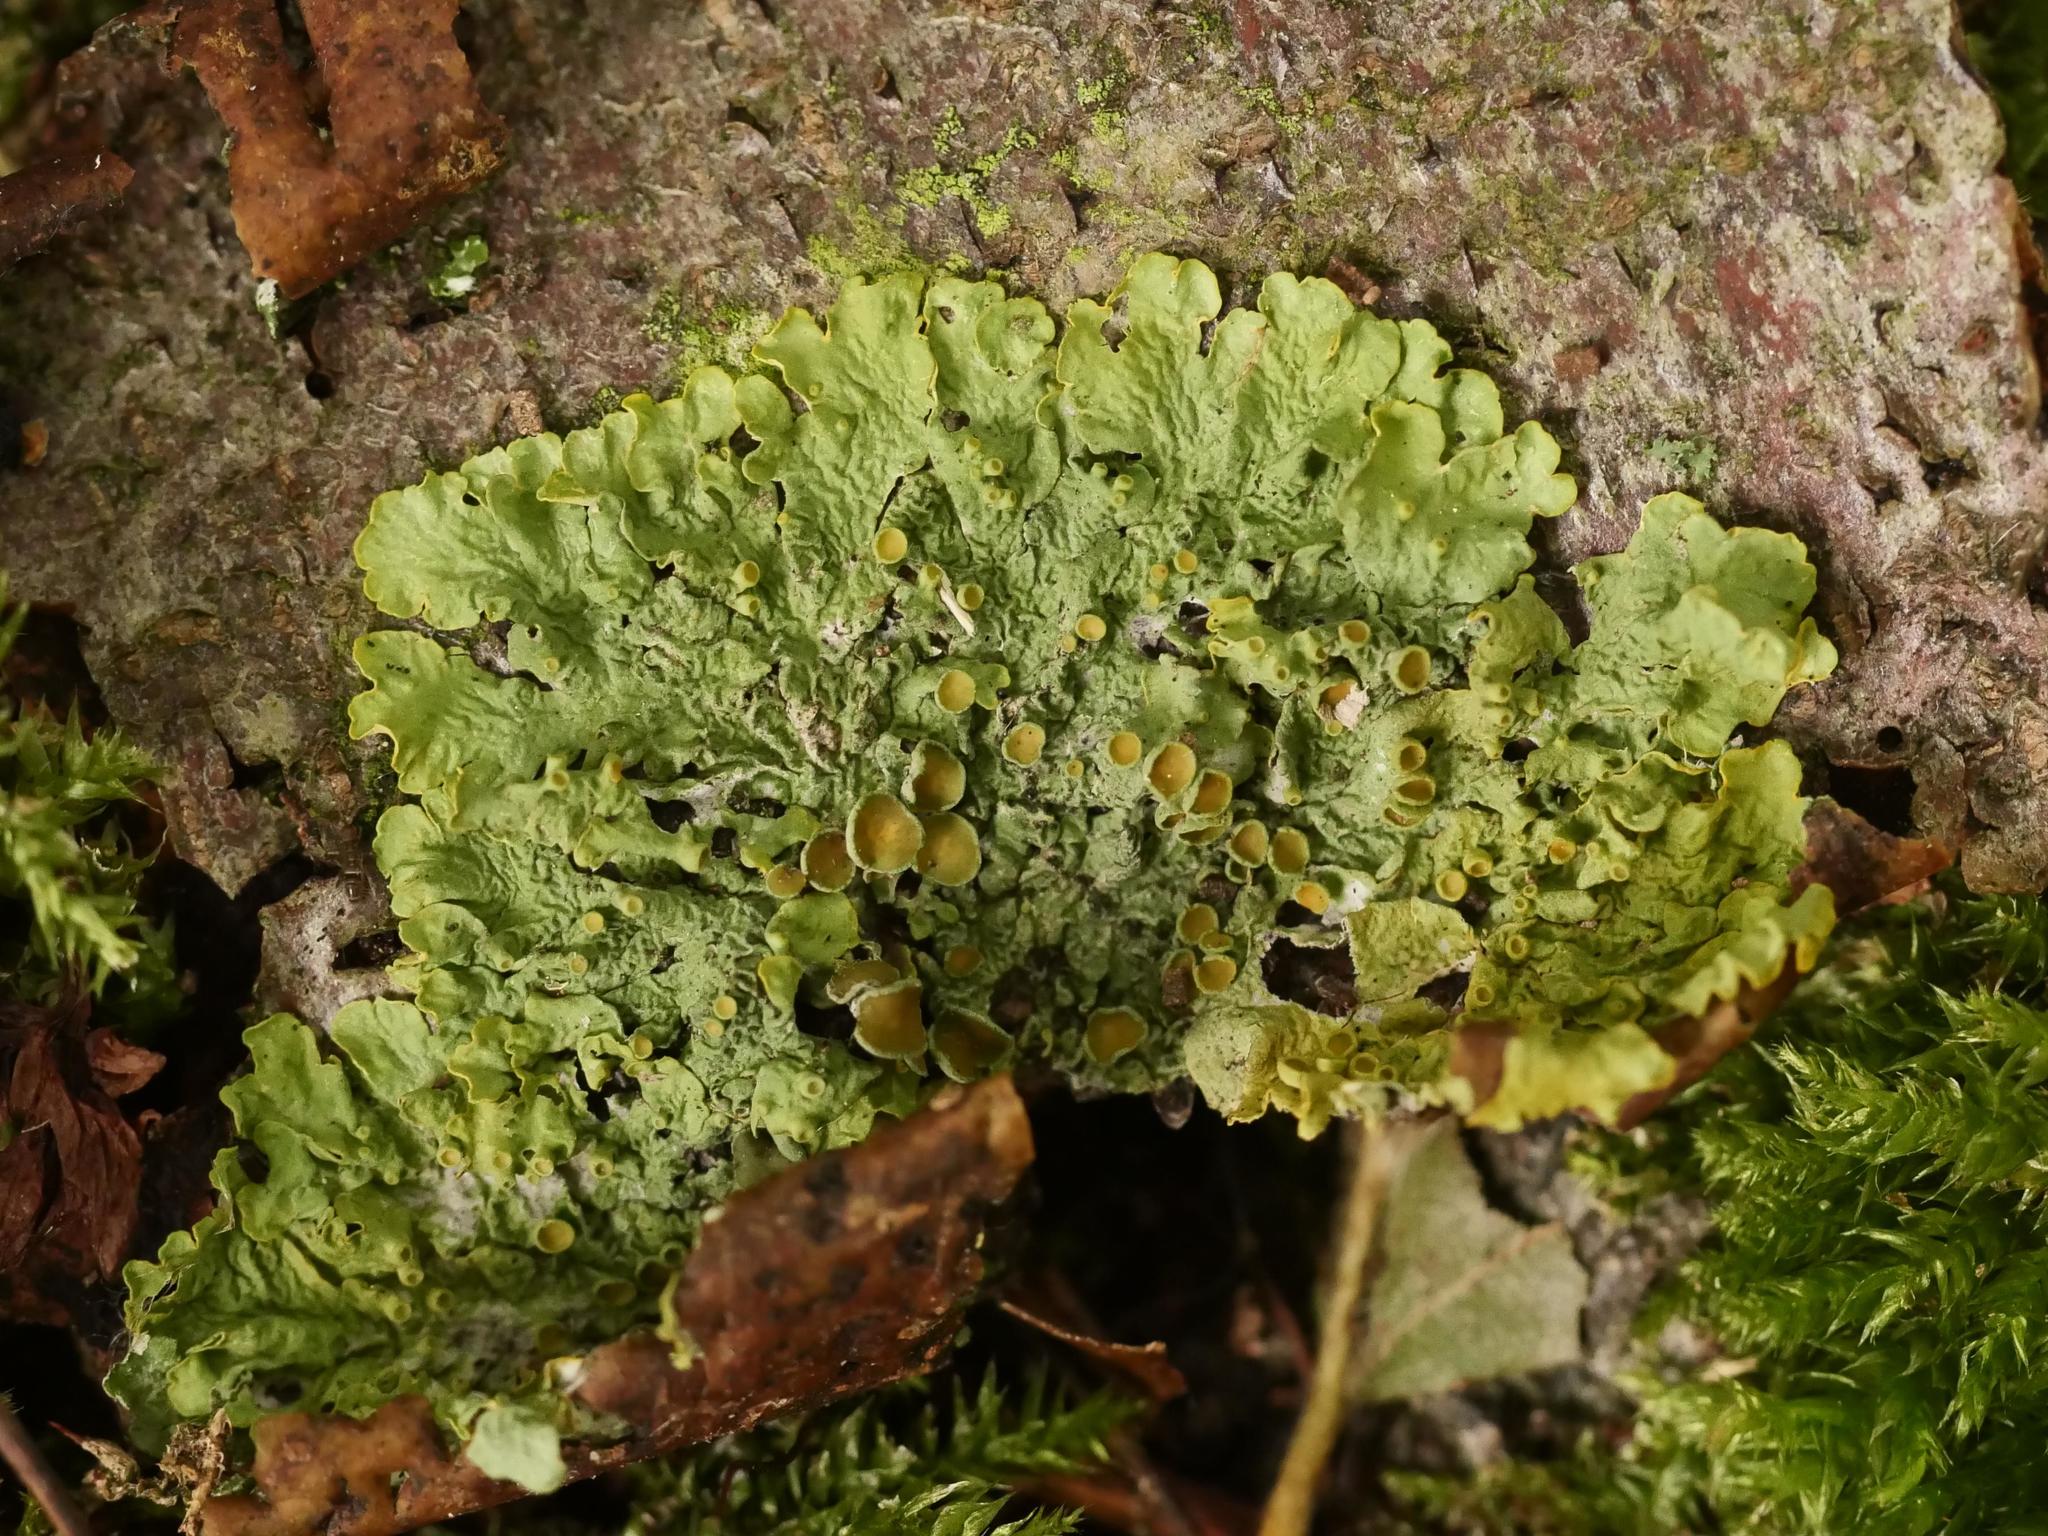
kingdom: Fungi
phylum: Ascomycota
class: Lecanoromycetes
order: Teloschistales
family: Teloschistaceae
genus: Xanthoria
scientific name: Xanthoria parietina
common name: Common orange lichen
